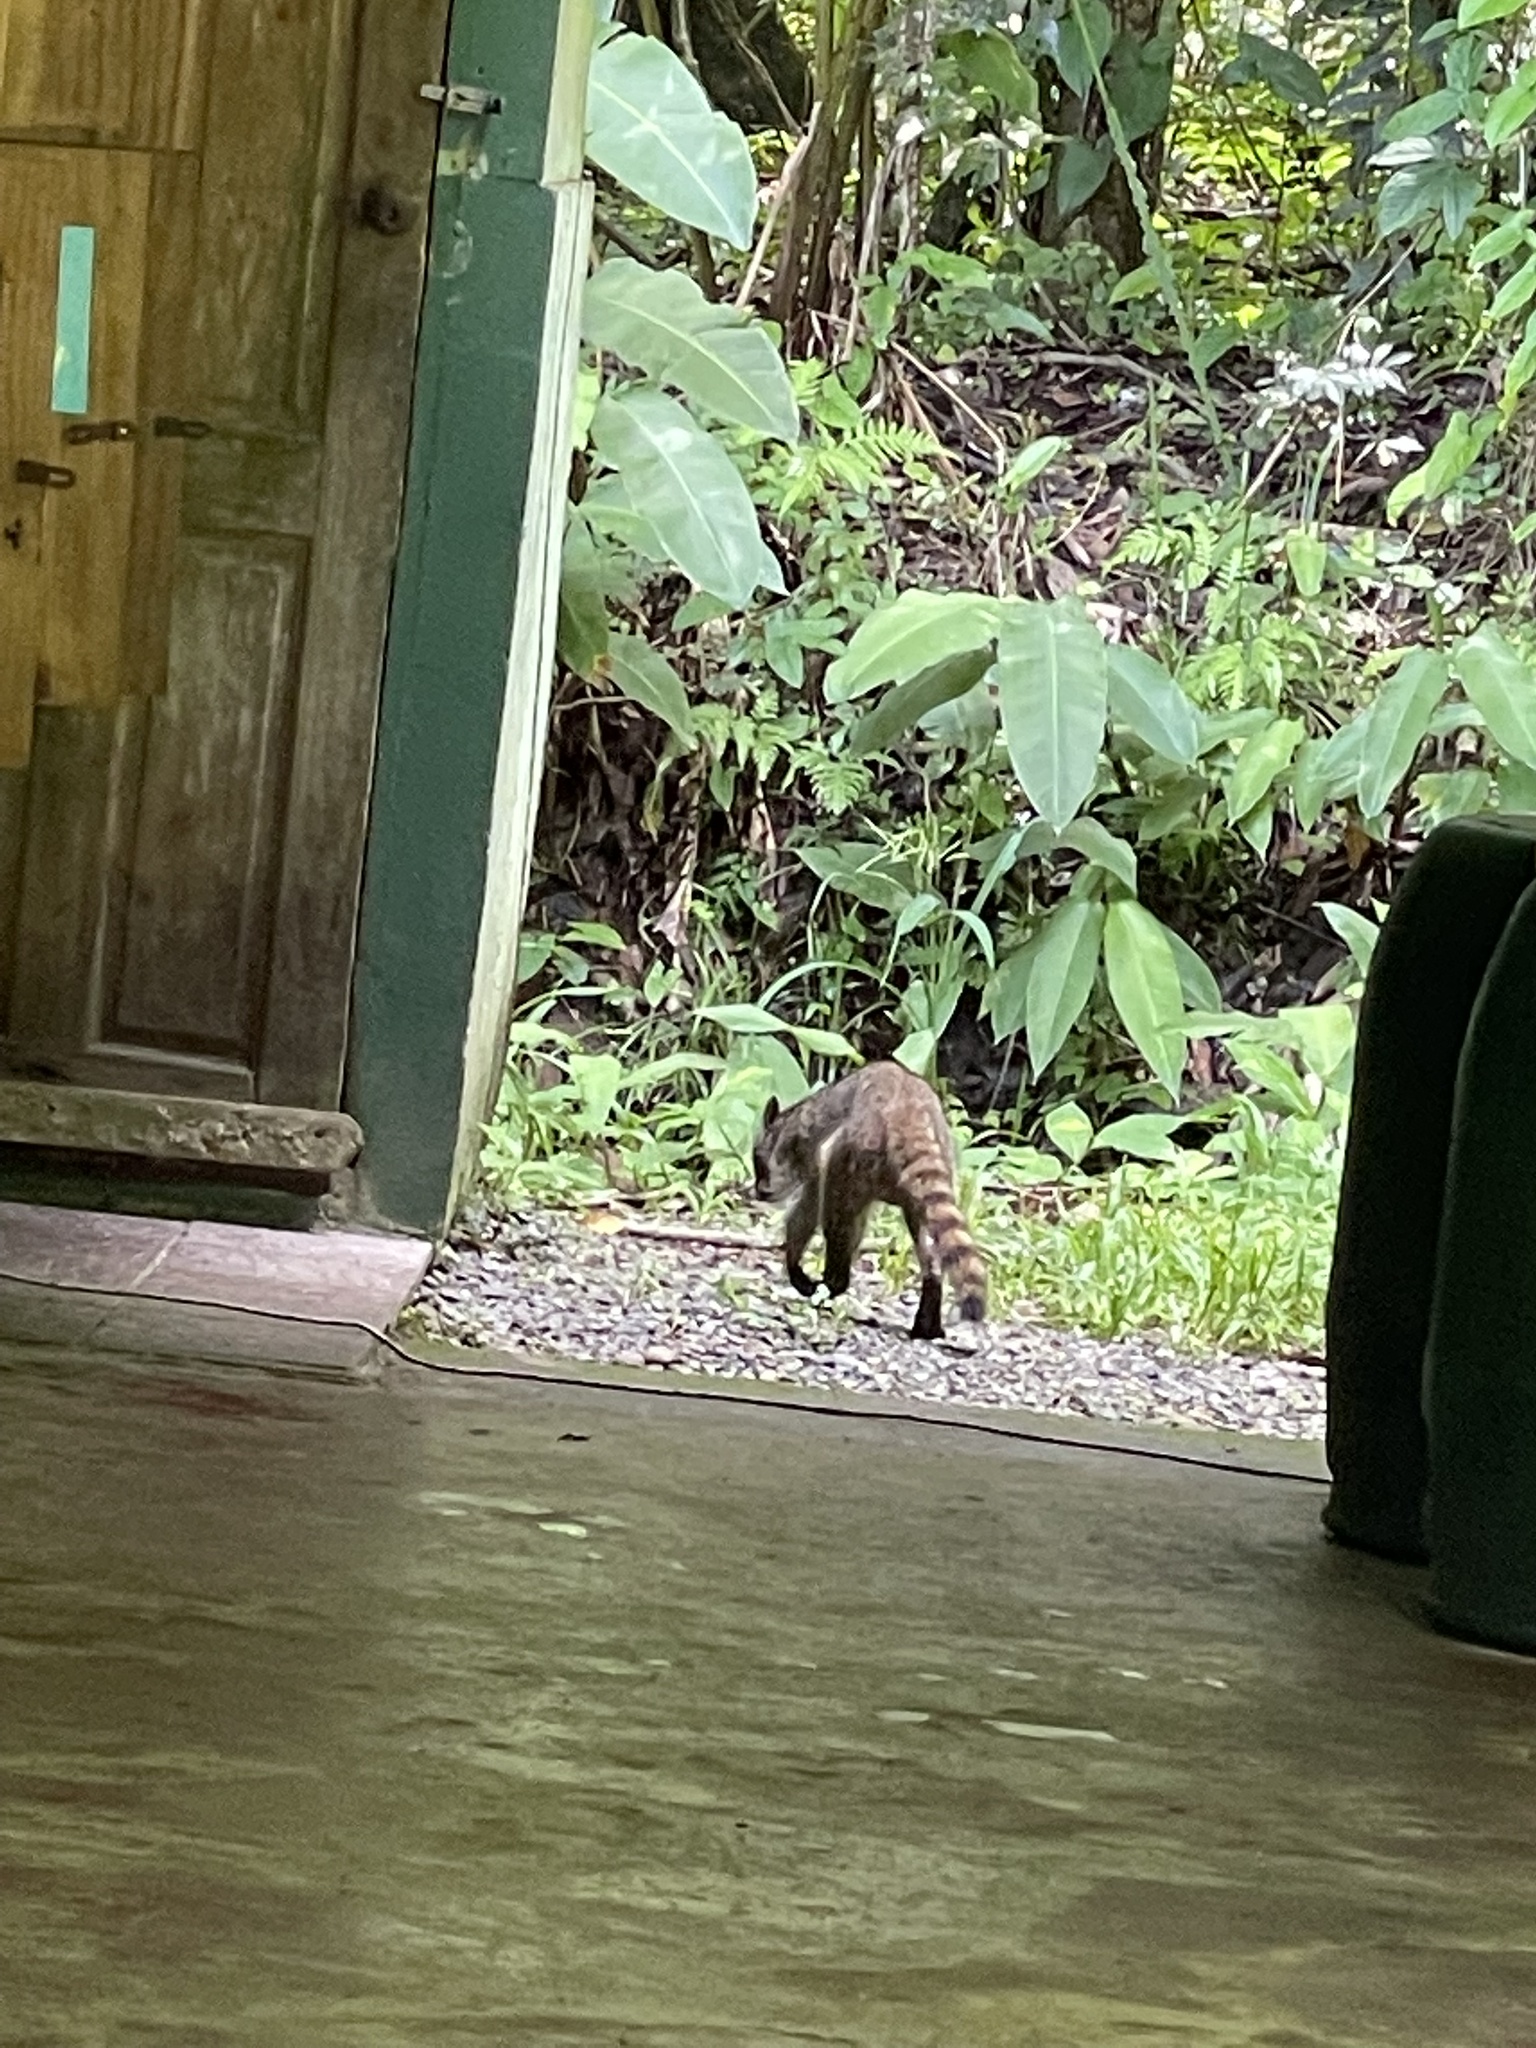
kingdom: Animalia
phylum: Chordata
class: Mammalia
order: Carnivora
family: Procyonidae
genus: Procyon
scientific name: Procyon lotor
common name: Raccoon
